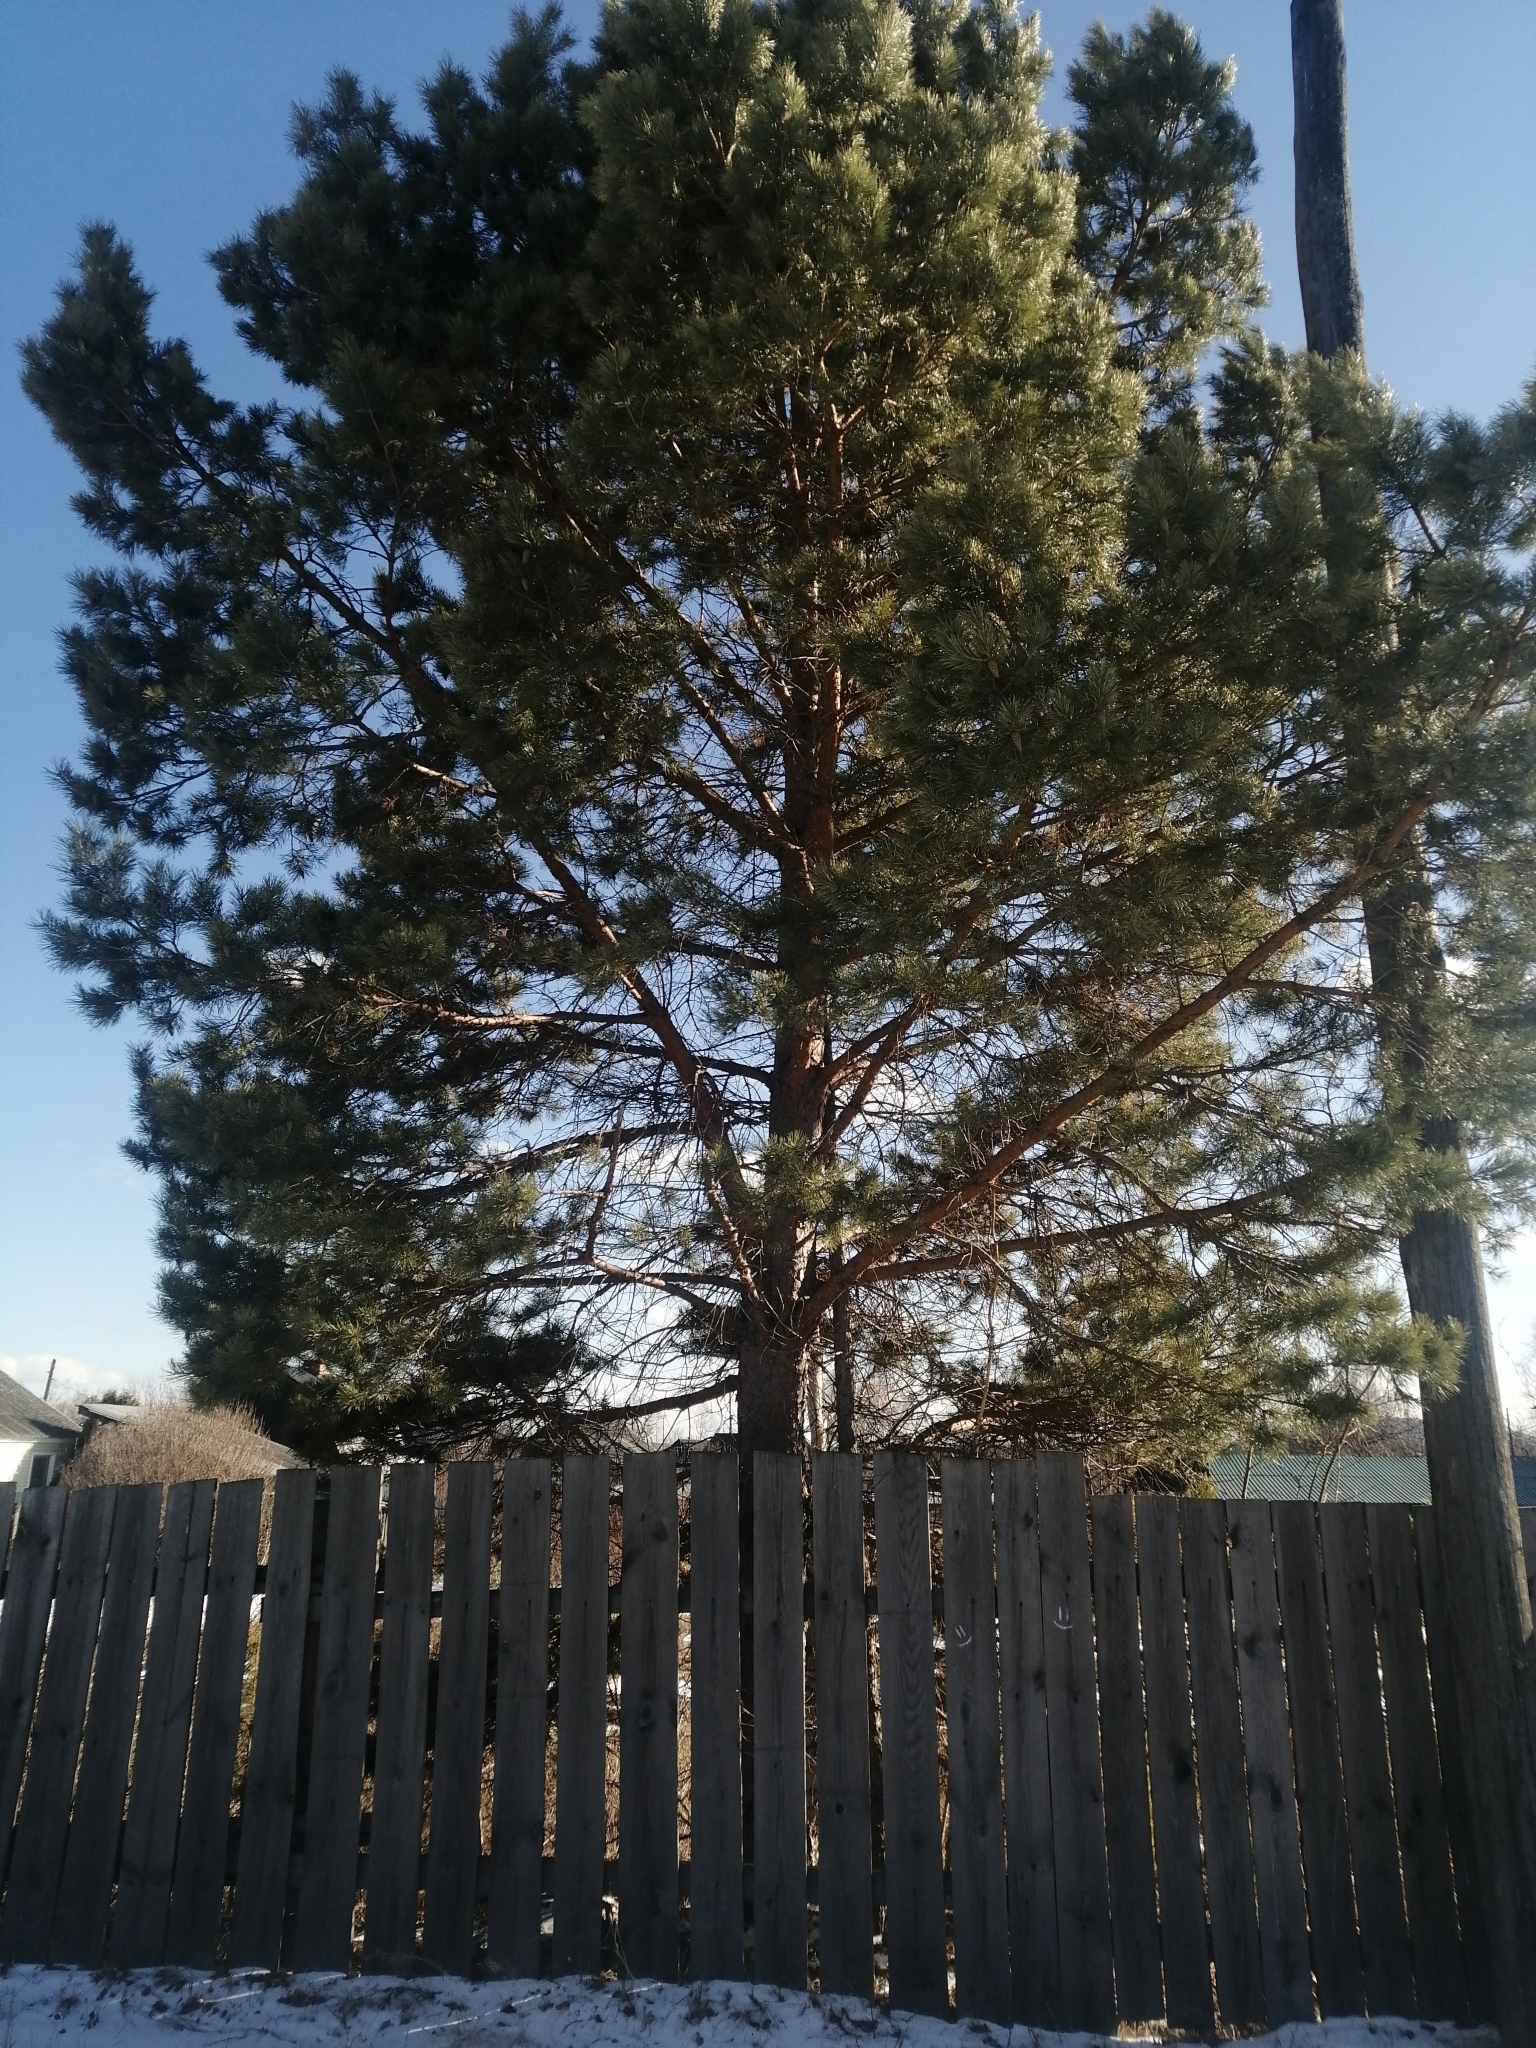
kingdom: Plantae
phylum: Tracheophyta
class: Pinopsida
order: Pinales
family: Pinaceae
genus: Pinus
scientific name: Pinus sylvestris
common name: Scots pine
